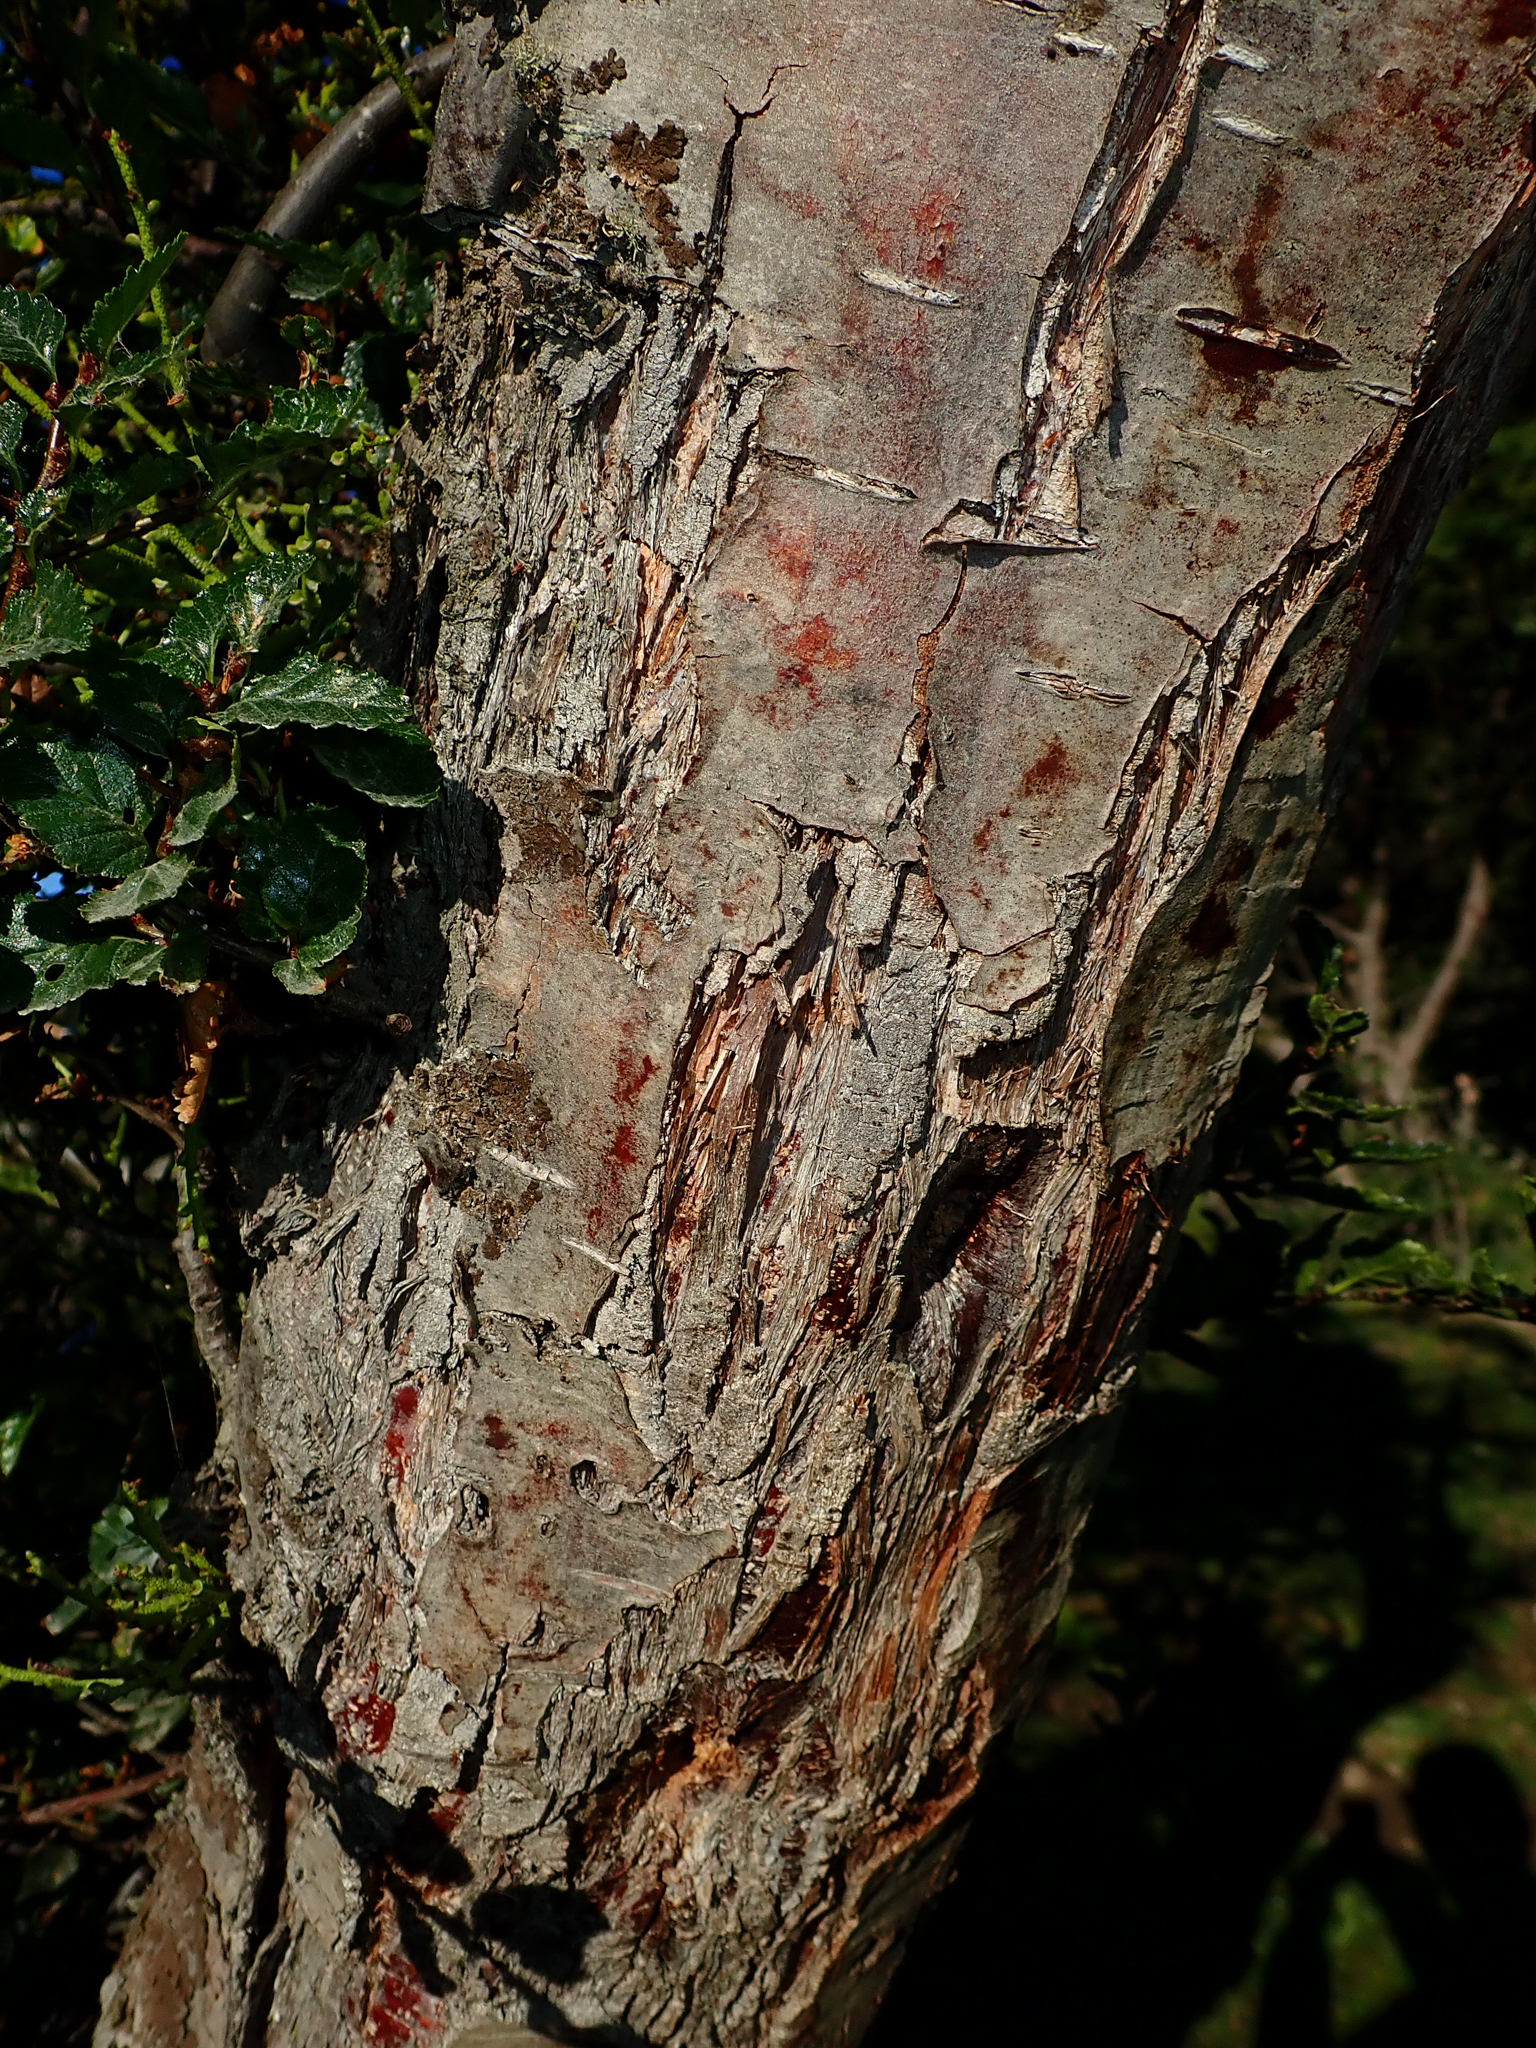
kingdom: Plantae
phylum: Tracheophyta
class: Magnoliopsida
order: Fagales
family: Nothofagaceae
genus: Nothofagus
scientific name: Nothofagus antarctica
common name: Antarctic beech
